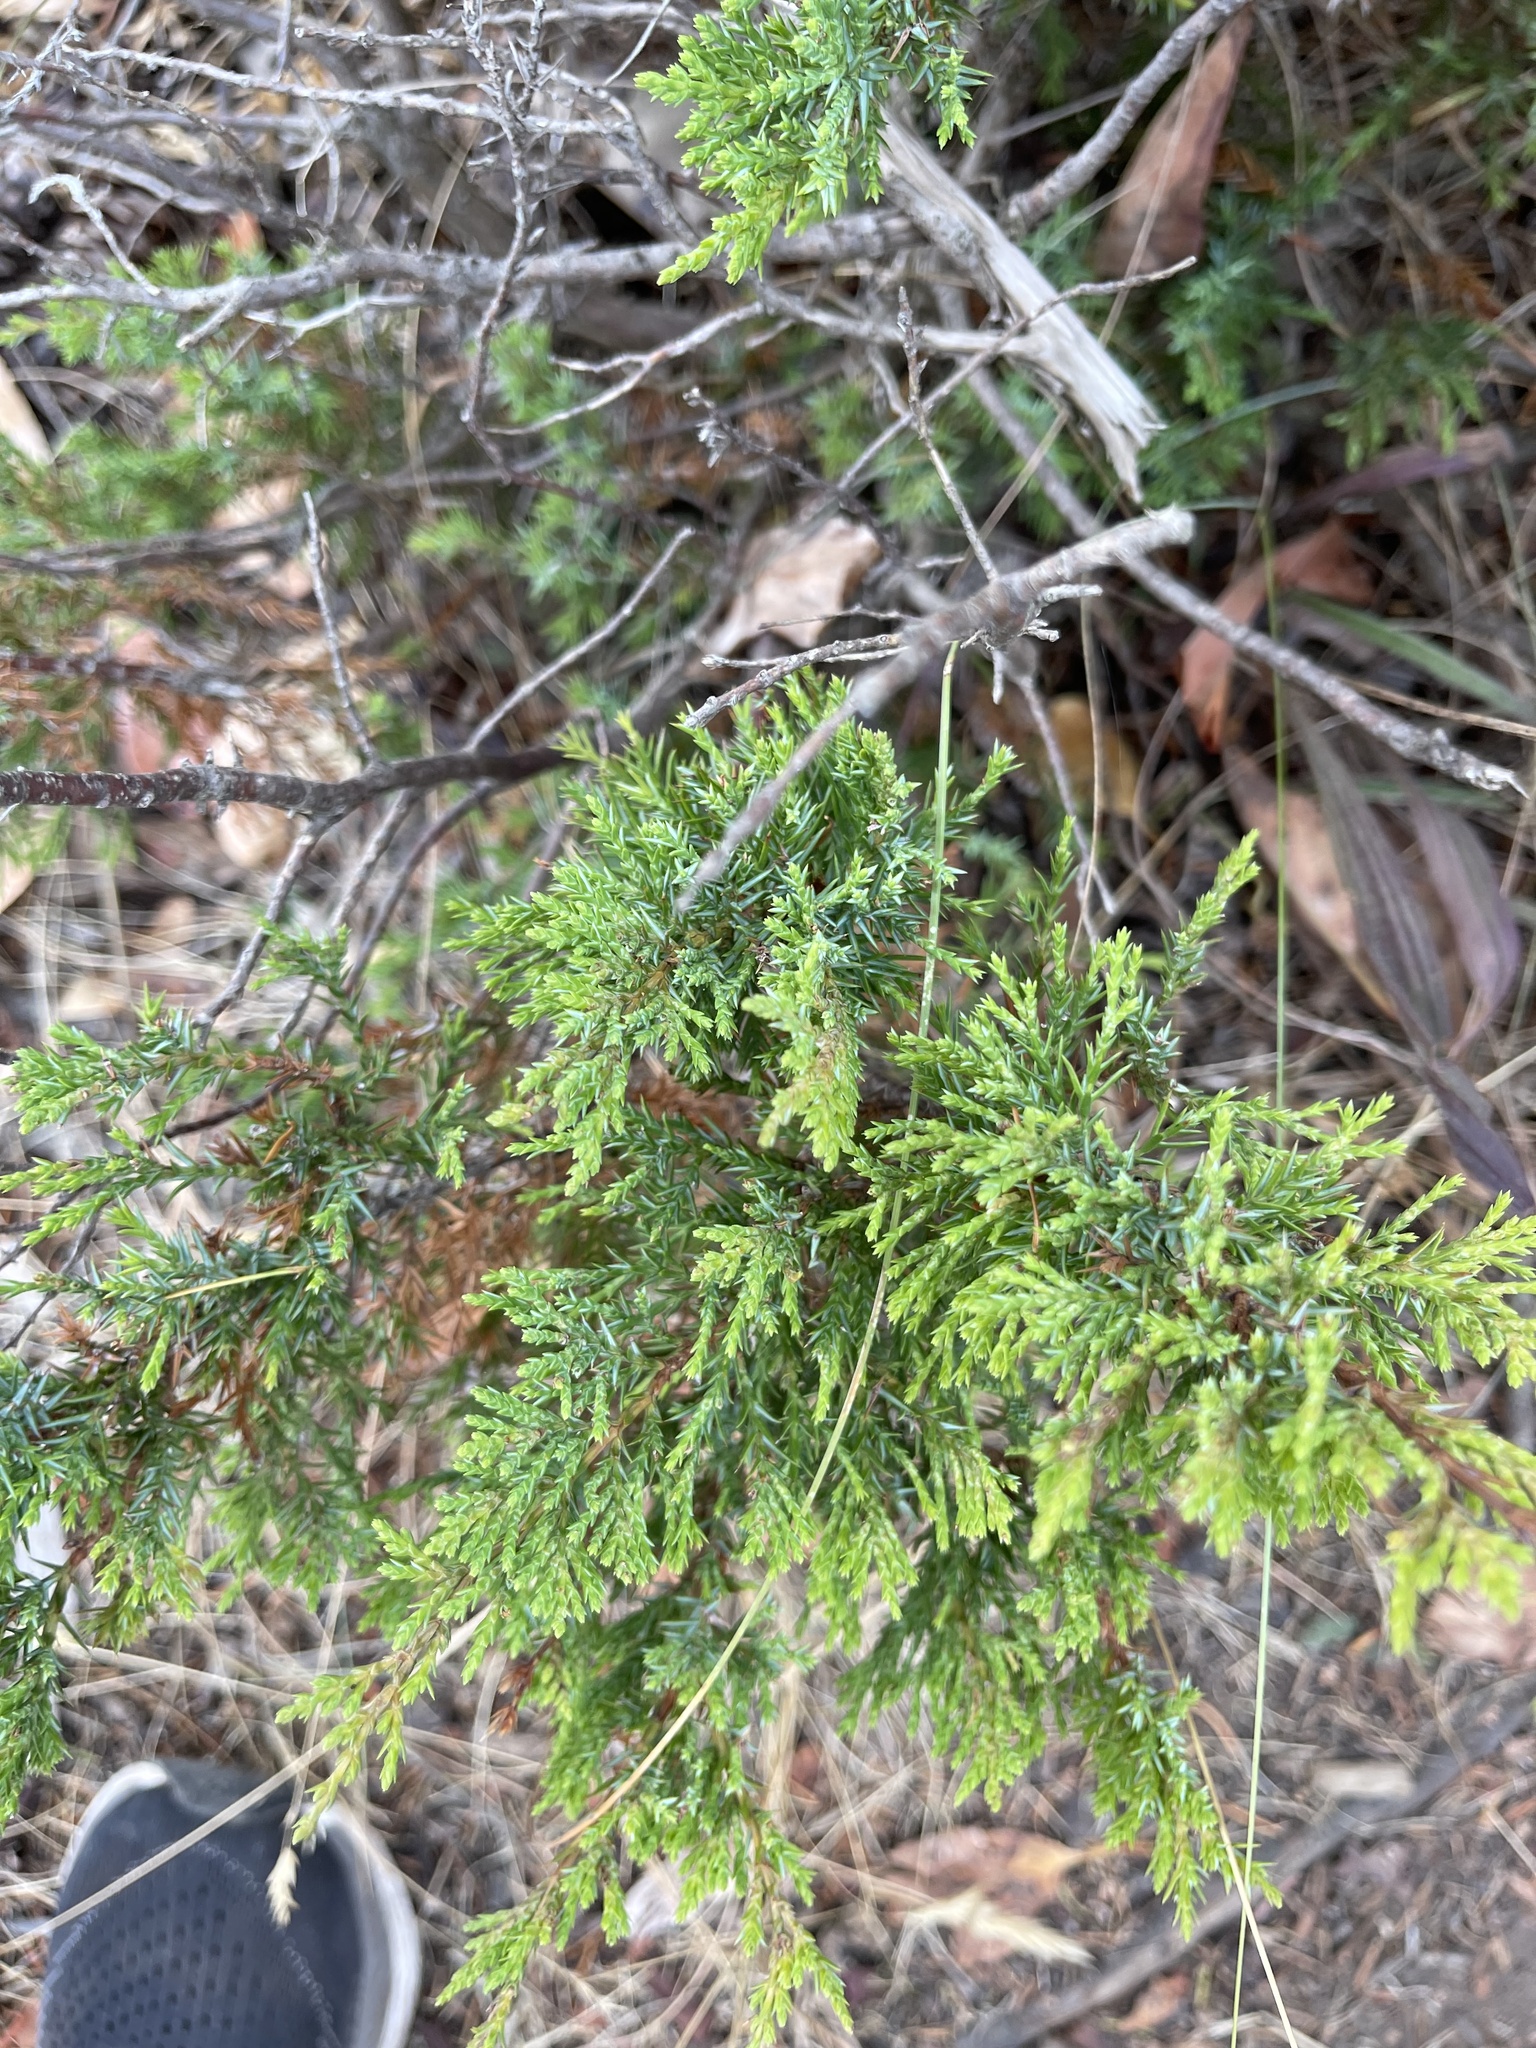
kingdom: Plantae
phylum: Tracheophyta
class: Pinopsida
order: Pinales
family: Cupressaceae
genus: Juniperus
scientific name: Juniperus scopulorum
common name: Rocky mountain juniper
